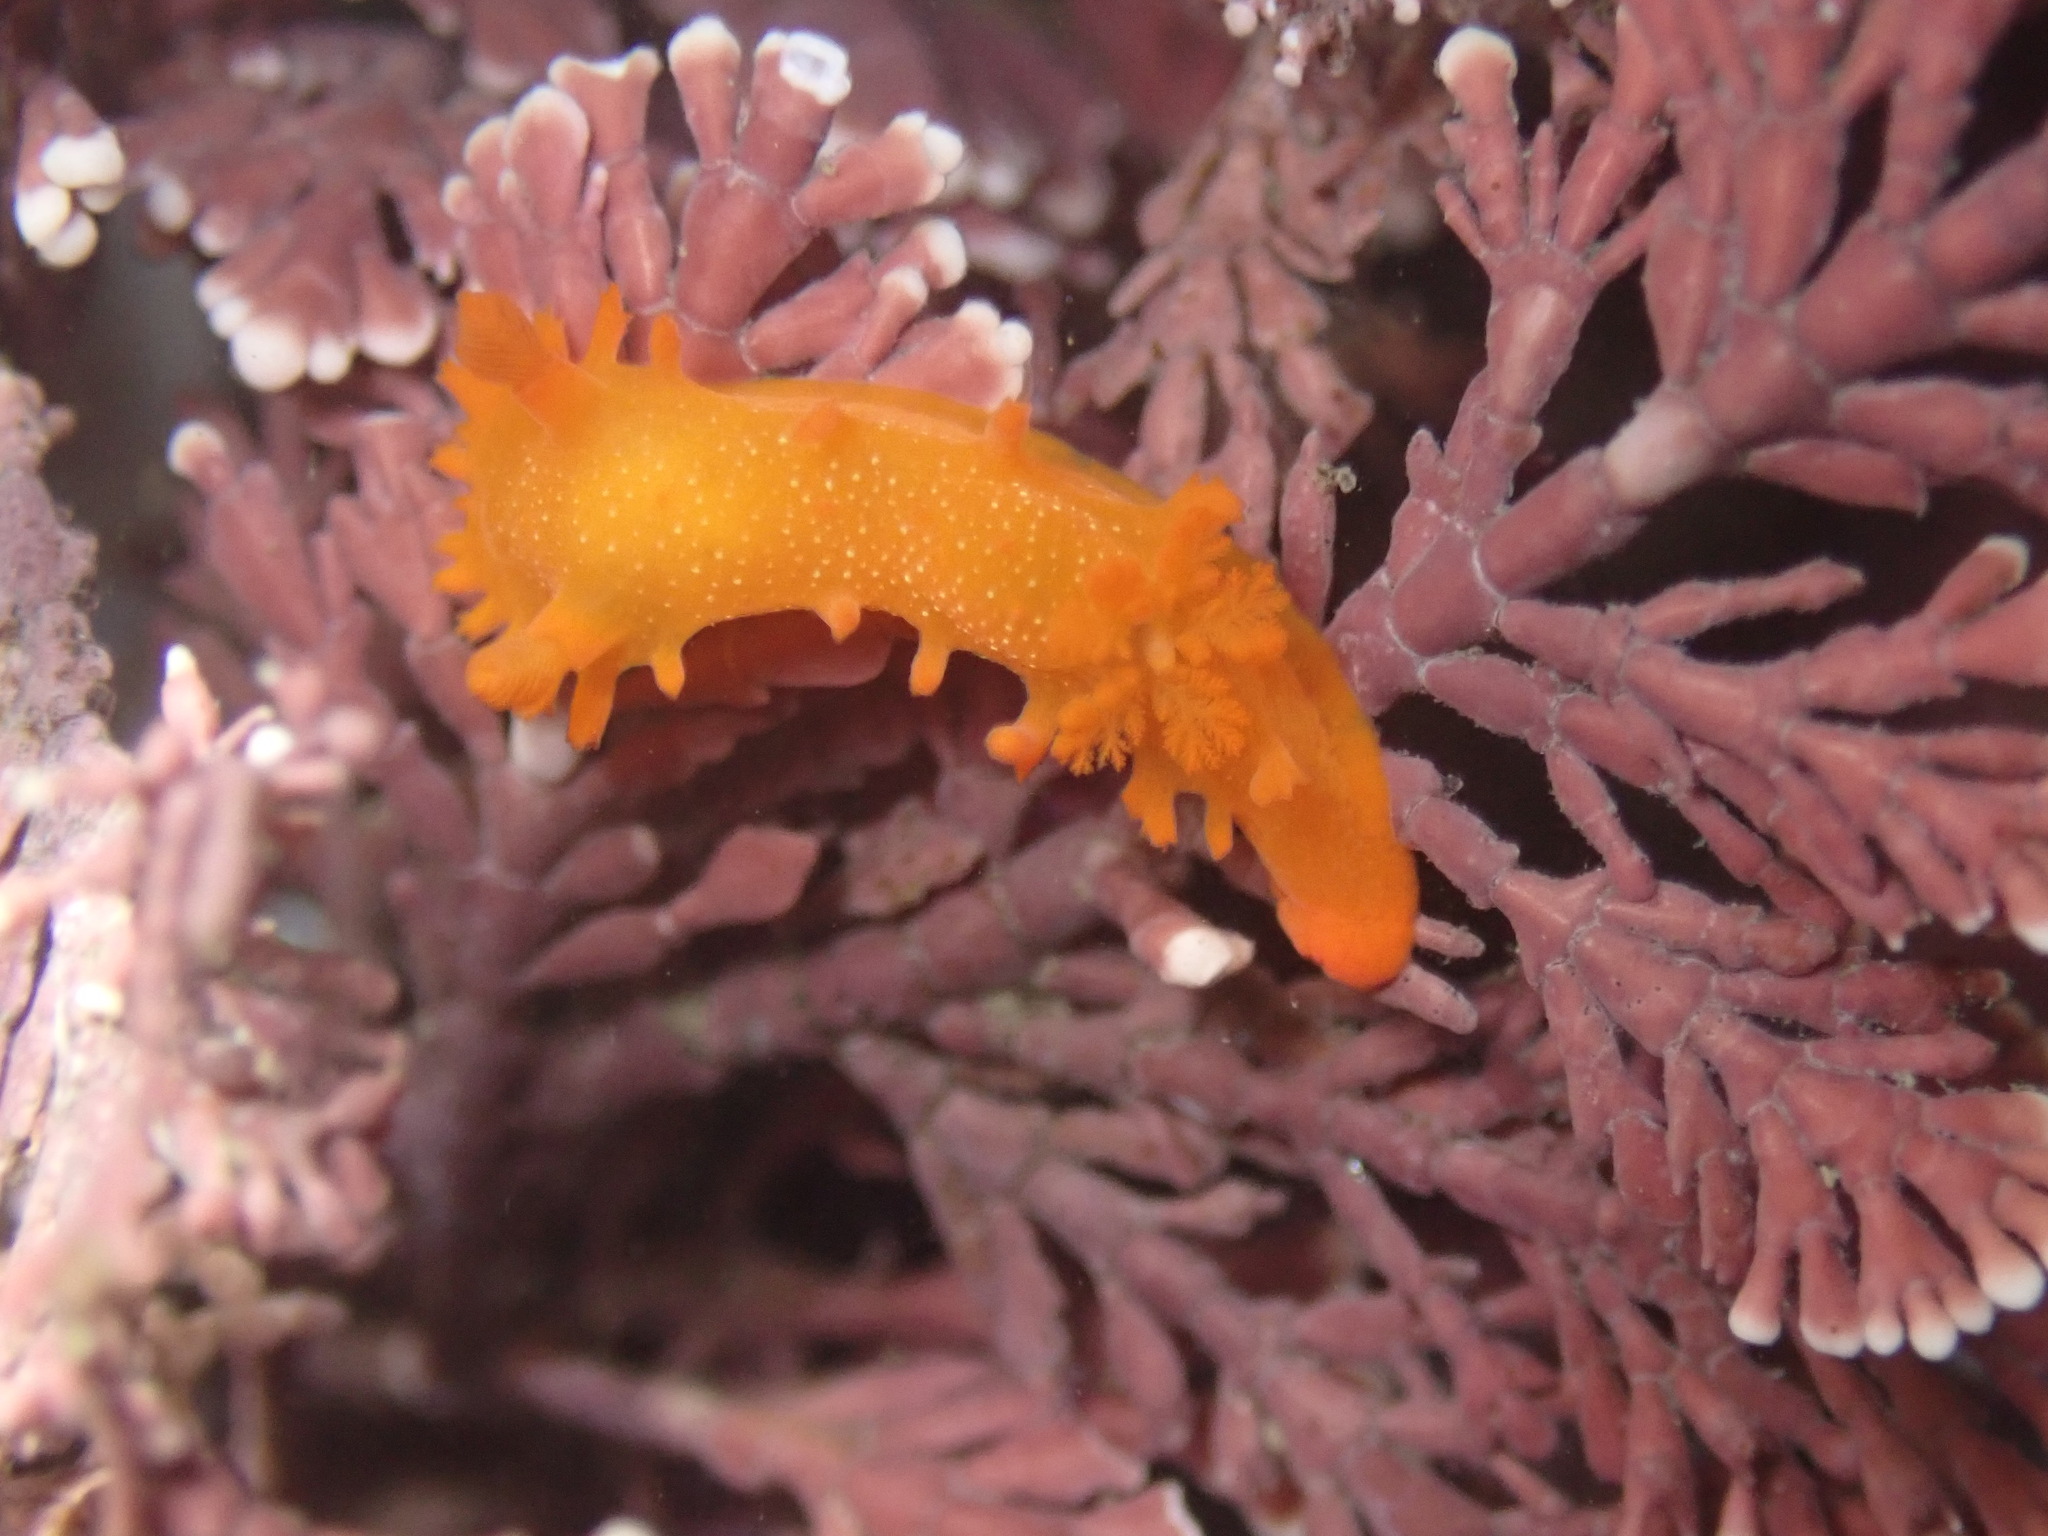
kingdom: Animalia
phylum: Mollusca
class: Gastropoda
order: Nudibranchia
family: Polyceridae
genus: Triopha
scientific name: Triopha maculata
